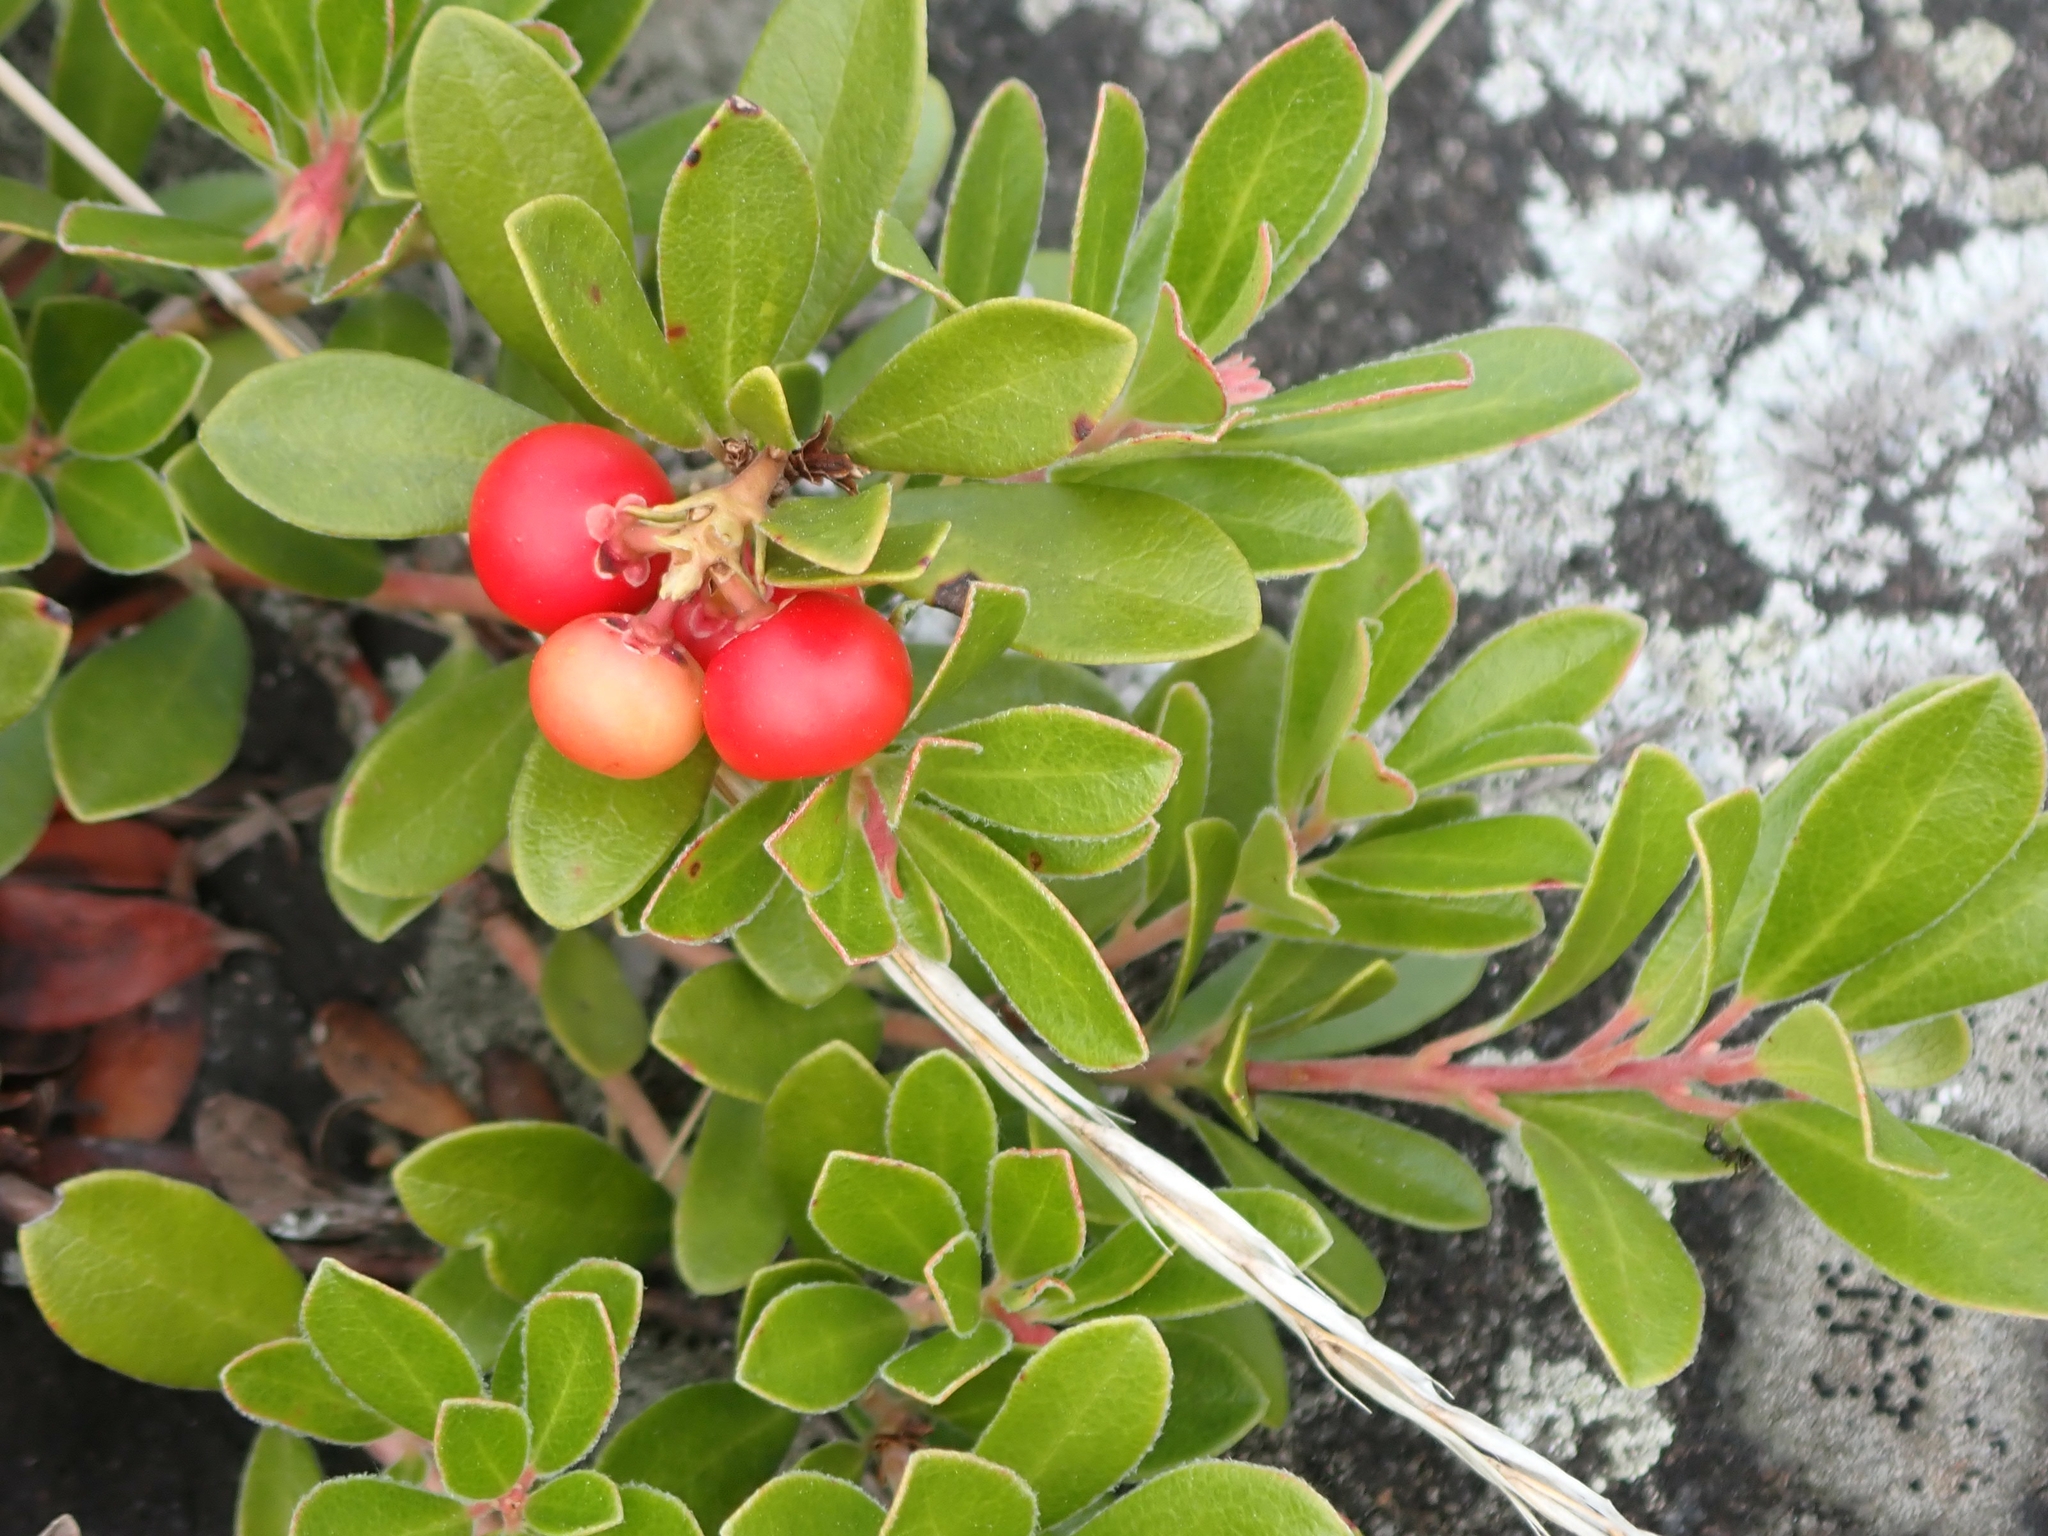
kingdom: Plantae
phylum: Tracheophyta
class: Magnoliopsida
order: Ericales
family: Ericaceae
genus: Arctostaphylos
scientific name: Arctostaphylos uva-ursi
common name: Bearberry
